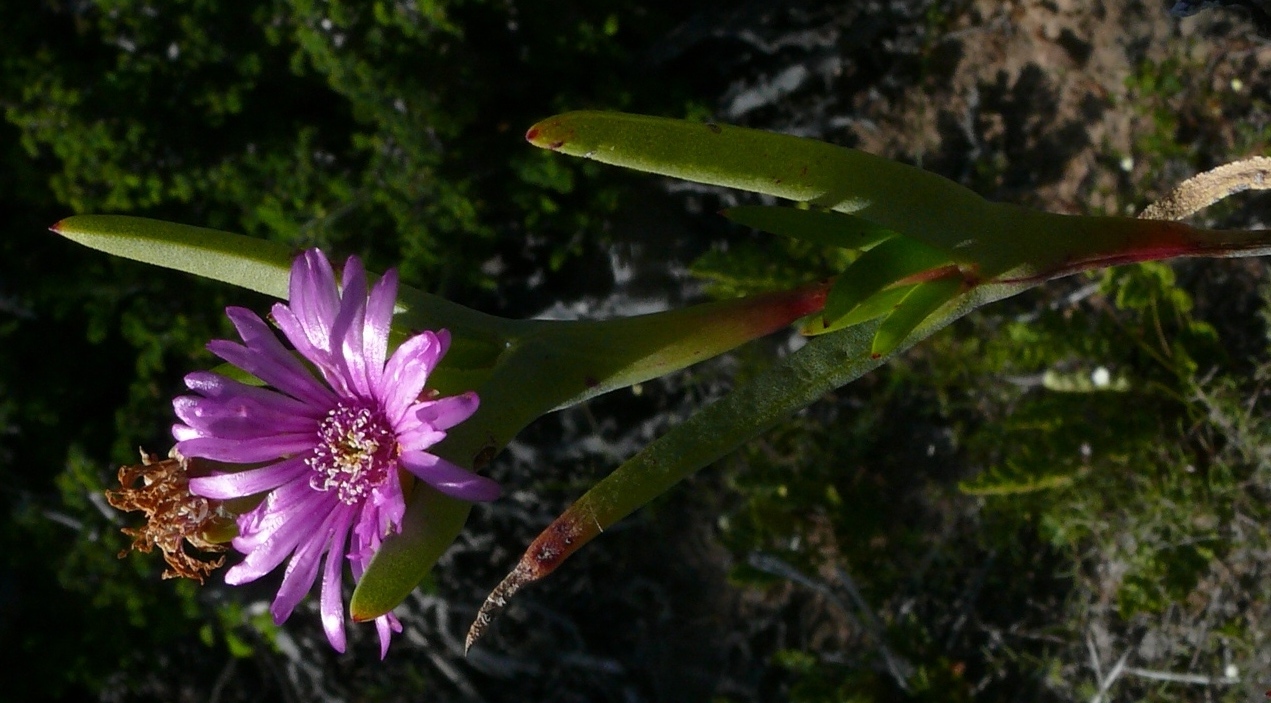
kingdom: Plantae
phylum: Tracheophyta
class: Magnoliopsida
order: Caryophyllales
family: Aizoaceae
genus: Ruschia
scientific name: Ruschia rariflora
